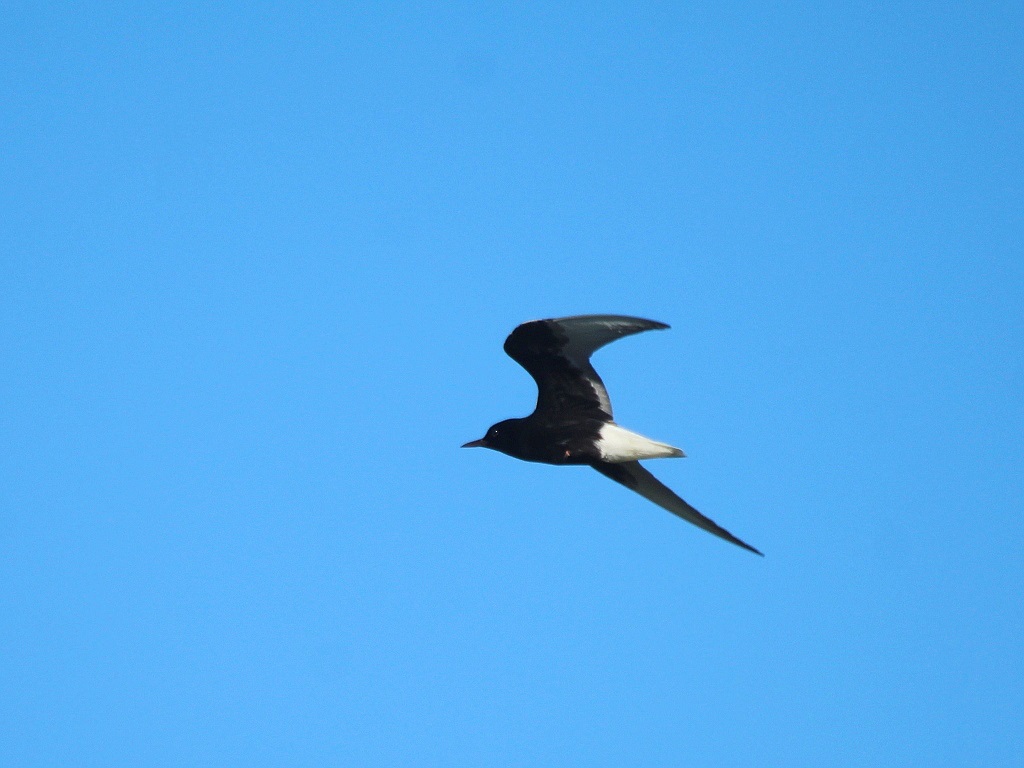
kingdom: Animalia
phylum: Chordata
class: Aves
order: Charadriiformes
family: Laridae
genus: Chlidonias
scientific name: Chlidonias leucopterus
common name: White-winged tern
